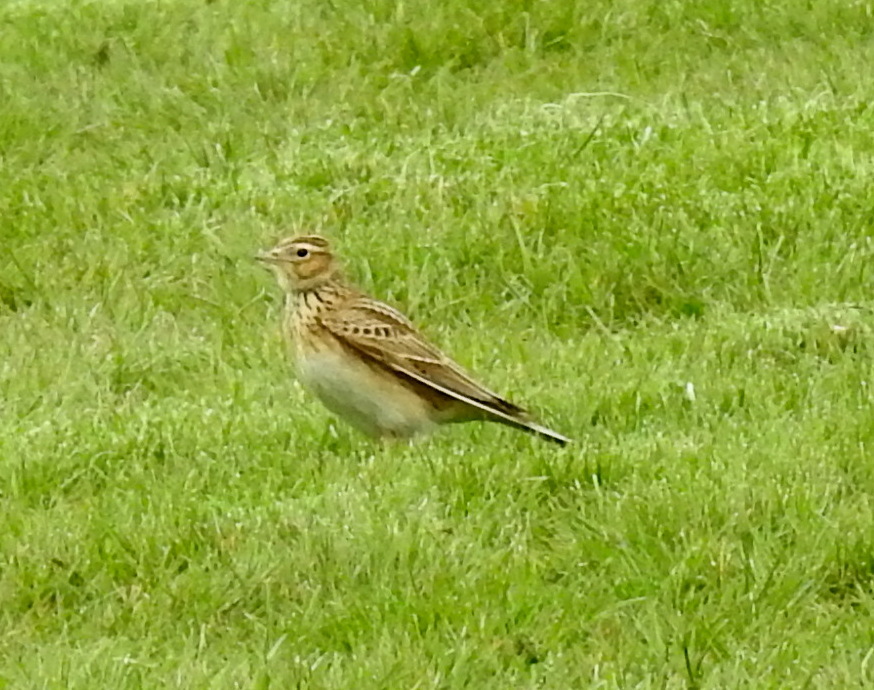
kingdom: Animalia
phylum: Chordata
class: Aves
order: Passeriformes
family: Alaudidae
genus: Alauda
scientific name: Alauda arvensis
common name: Eurasian skylark
